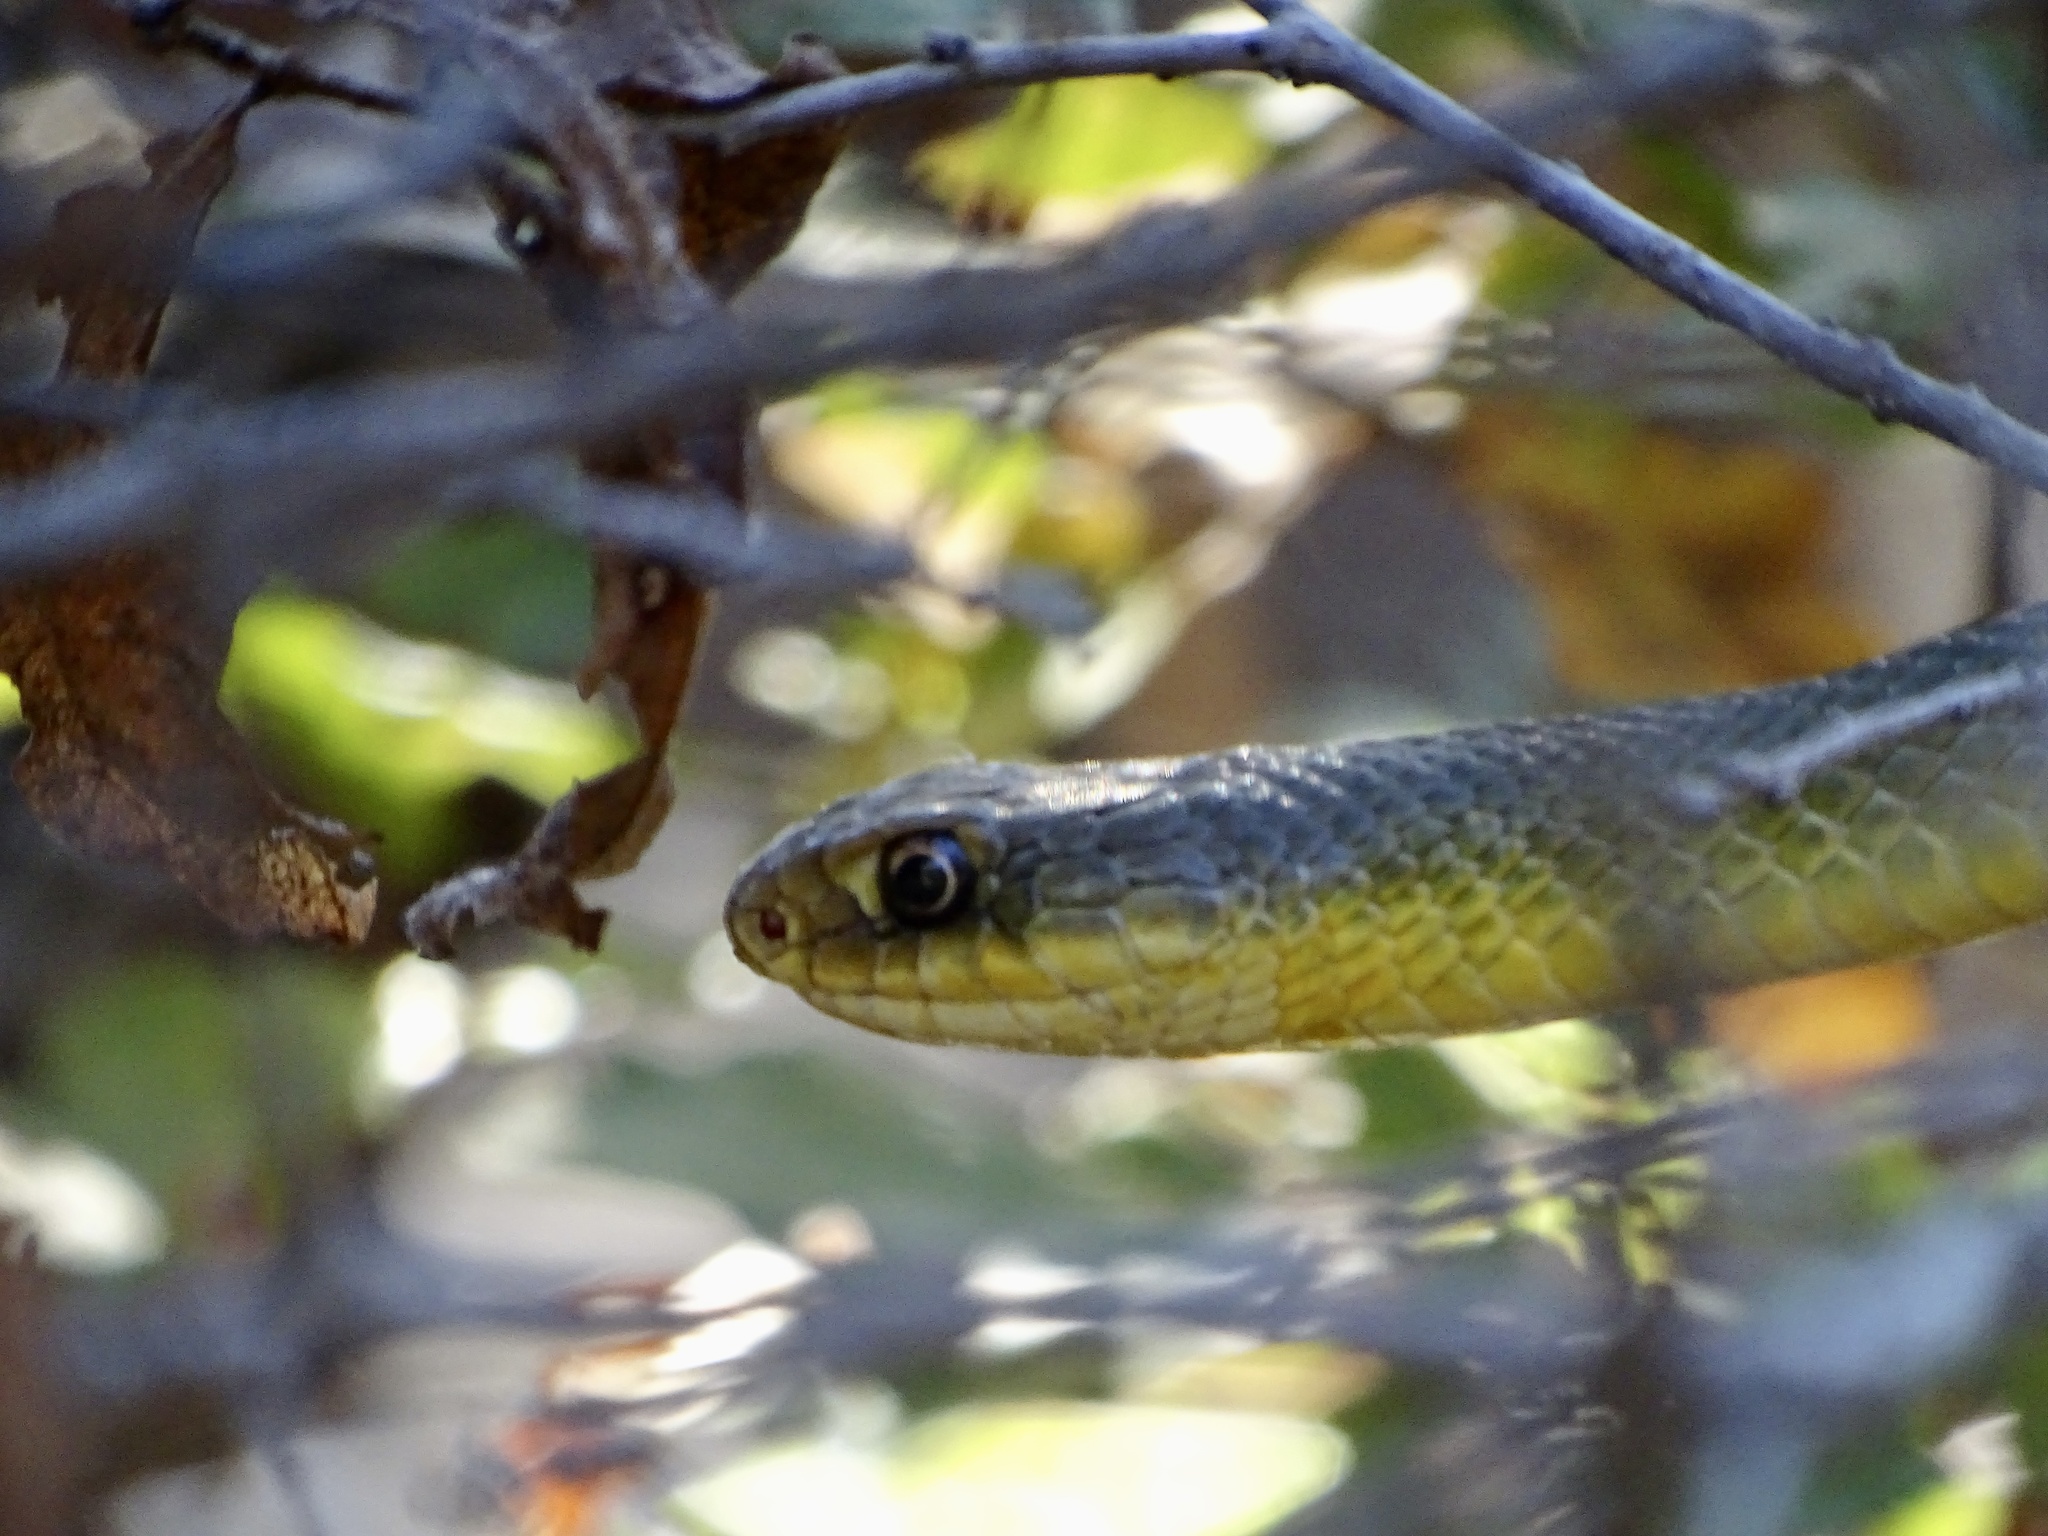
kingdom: Animalia
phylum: Chordata
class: Squamata
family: Colubridae
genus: Coluber
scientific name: Coluber constrictor
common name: Eastern racer
